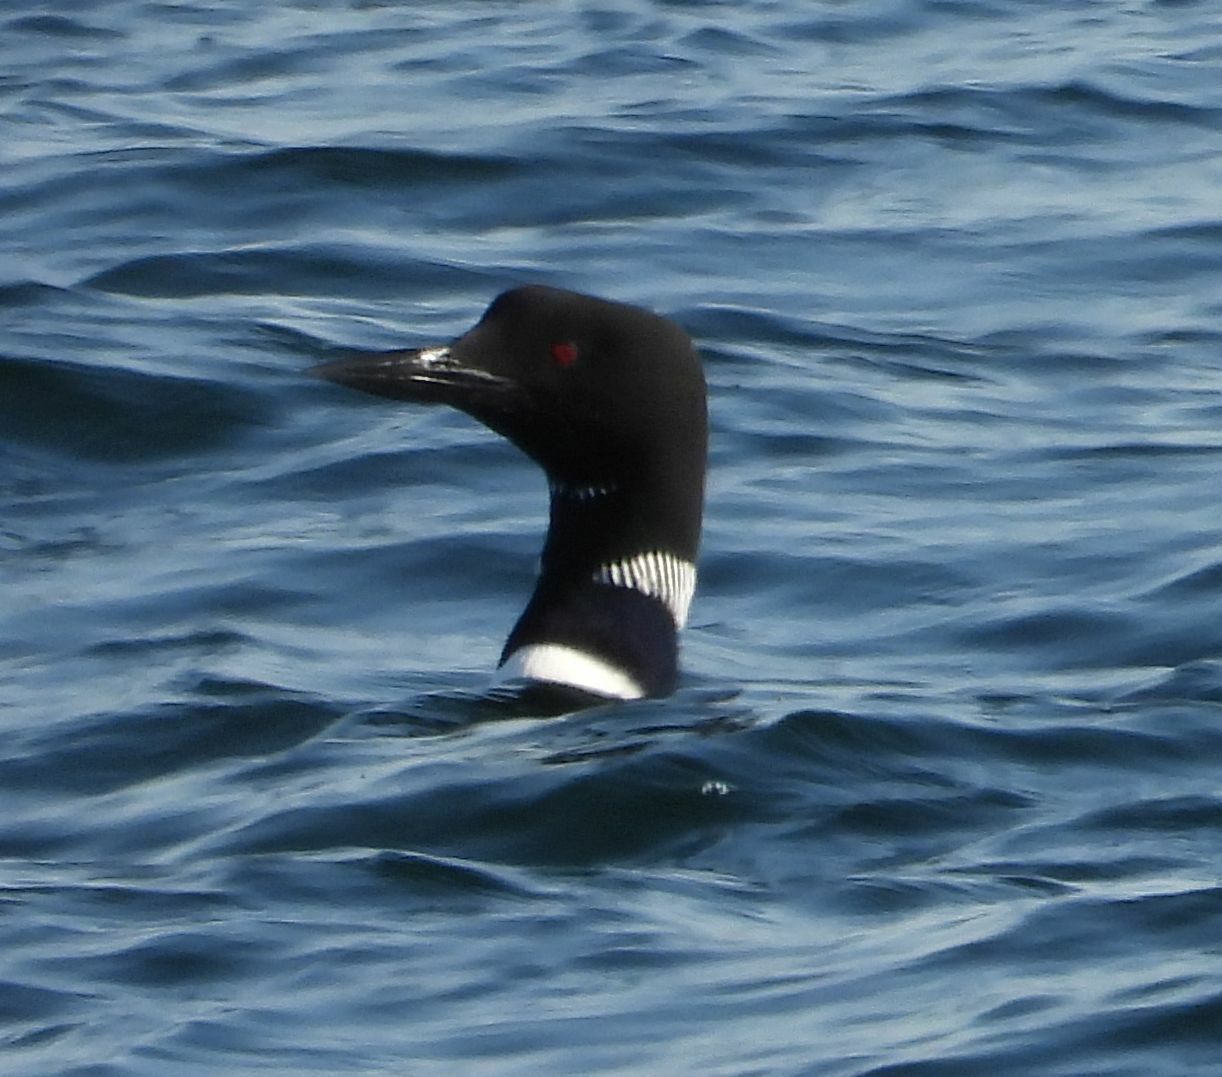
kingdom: Animalia
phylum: Chordata
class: Aves
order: Gaviiformes
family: Gaviidae
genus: Gavia
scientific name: Gavia immer
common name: Common loon
